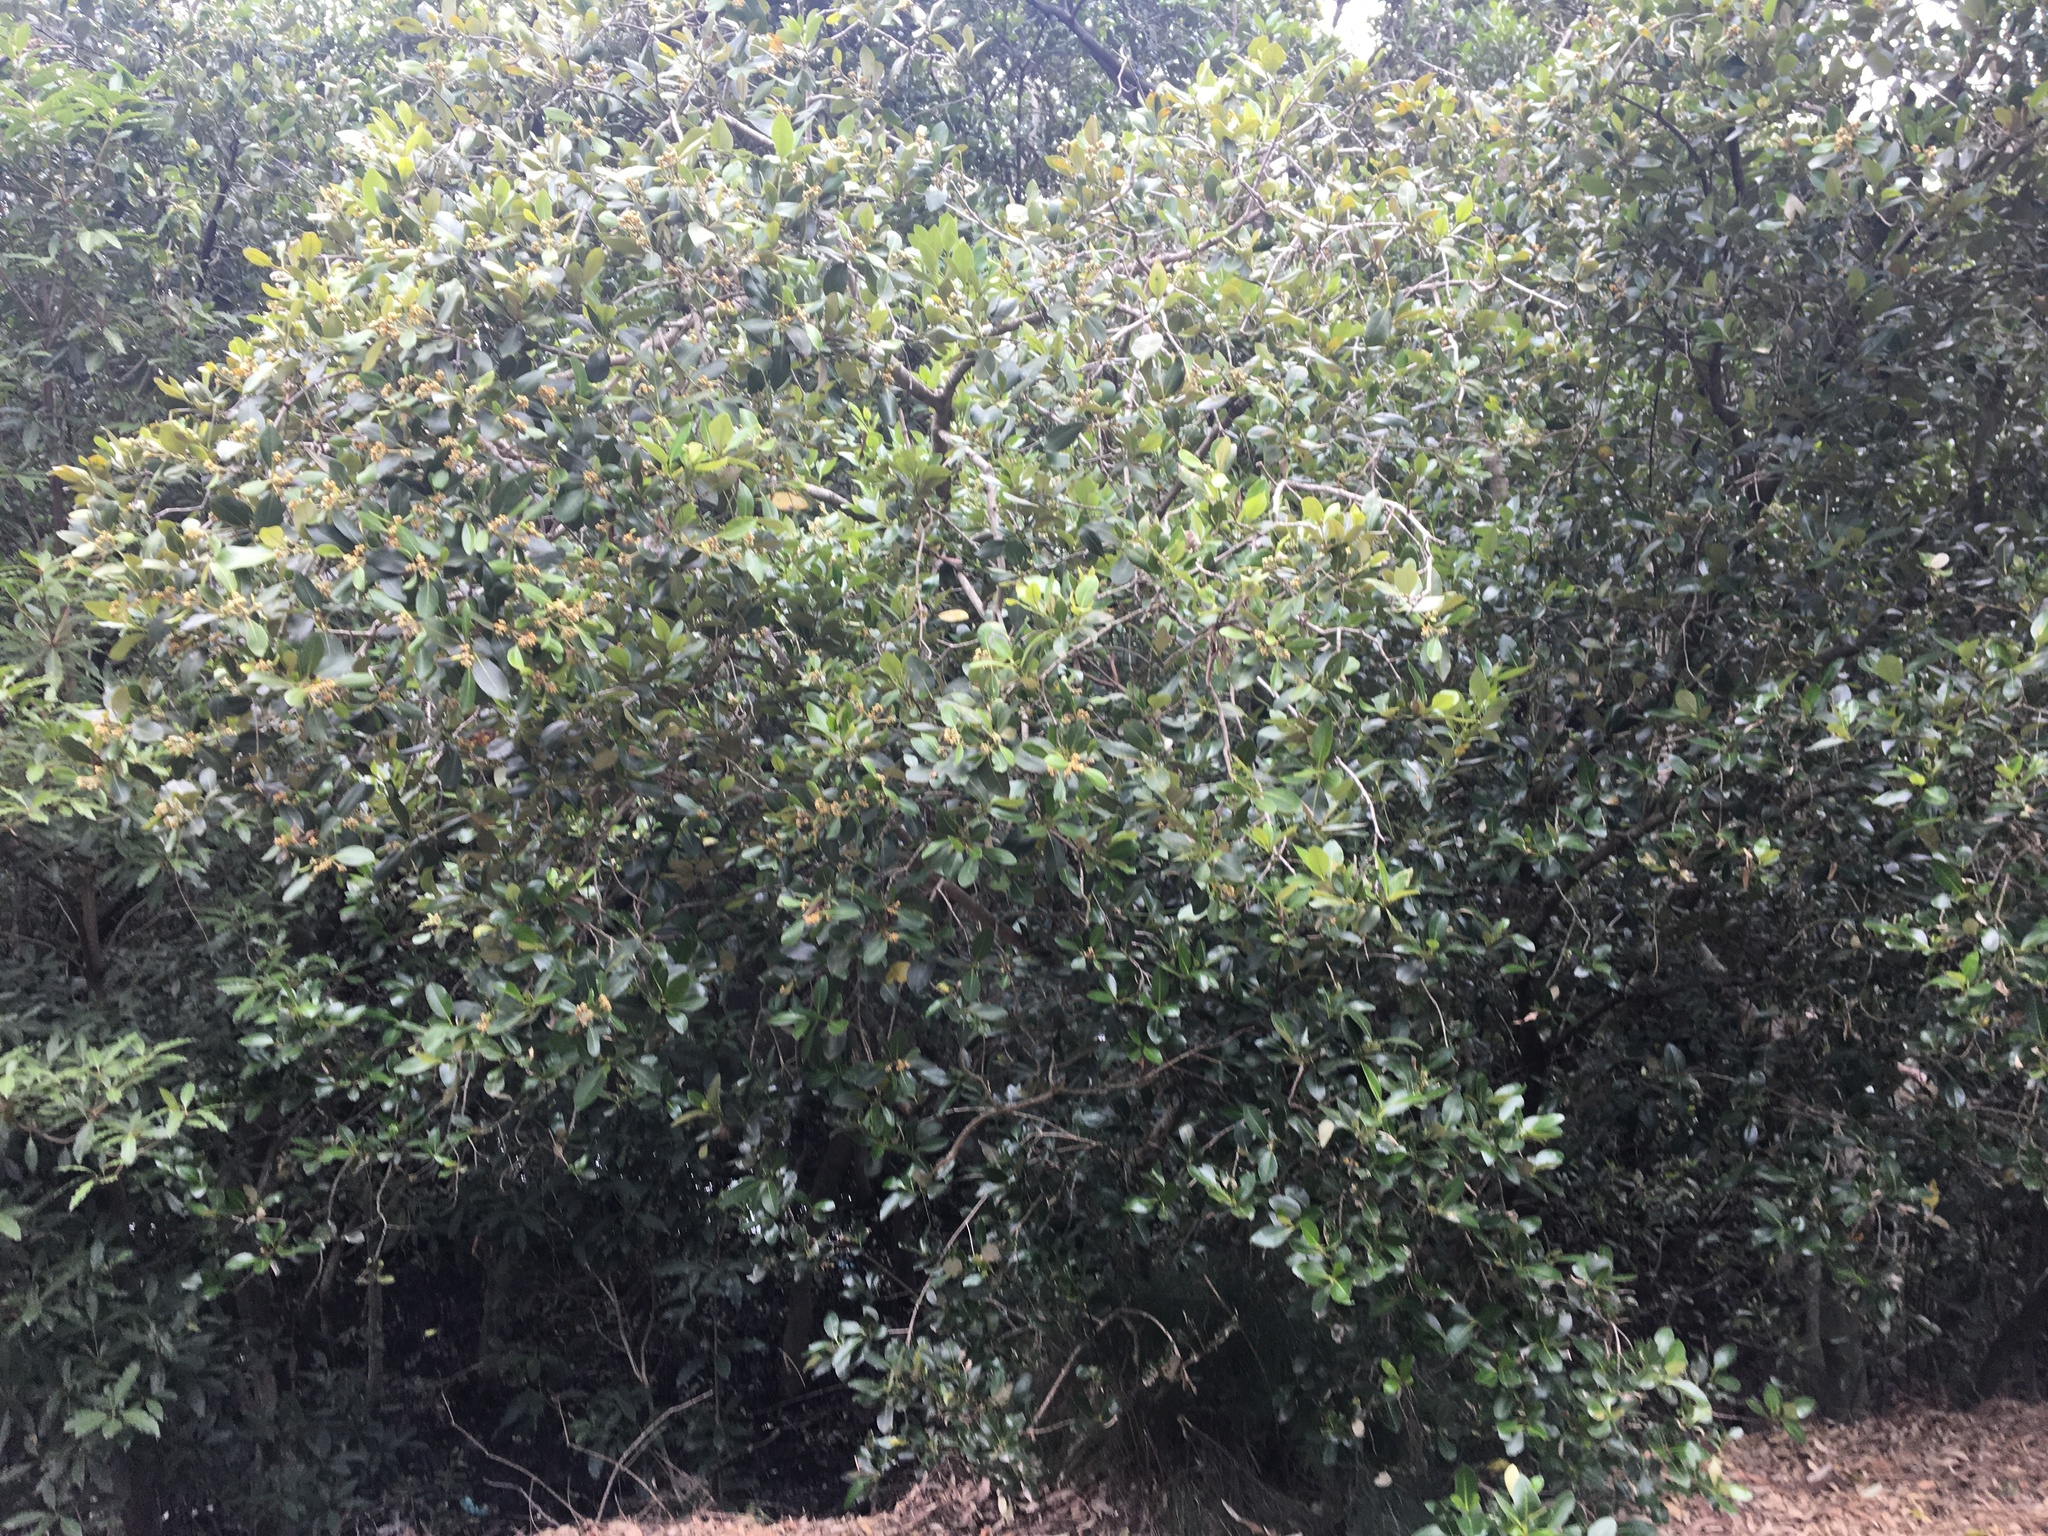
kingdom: Plantae
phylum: Tracheophyta
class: Magnoliopsida
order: Lamiales
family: Acanthaceae
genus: Avicennia
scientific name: Avicennia marina
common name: Gray mangrove
